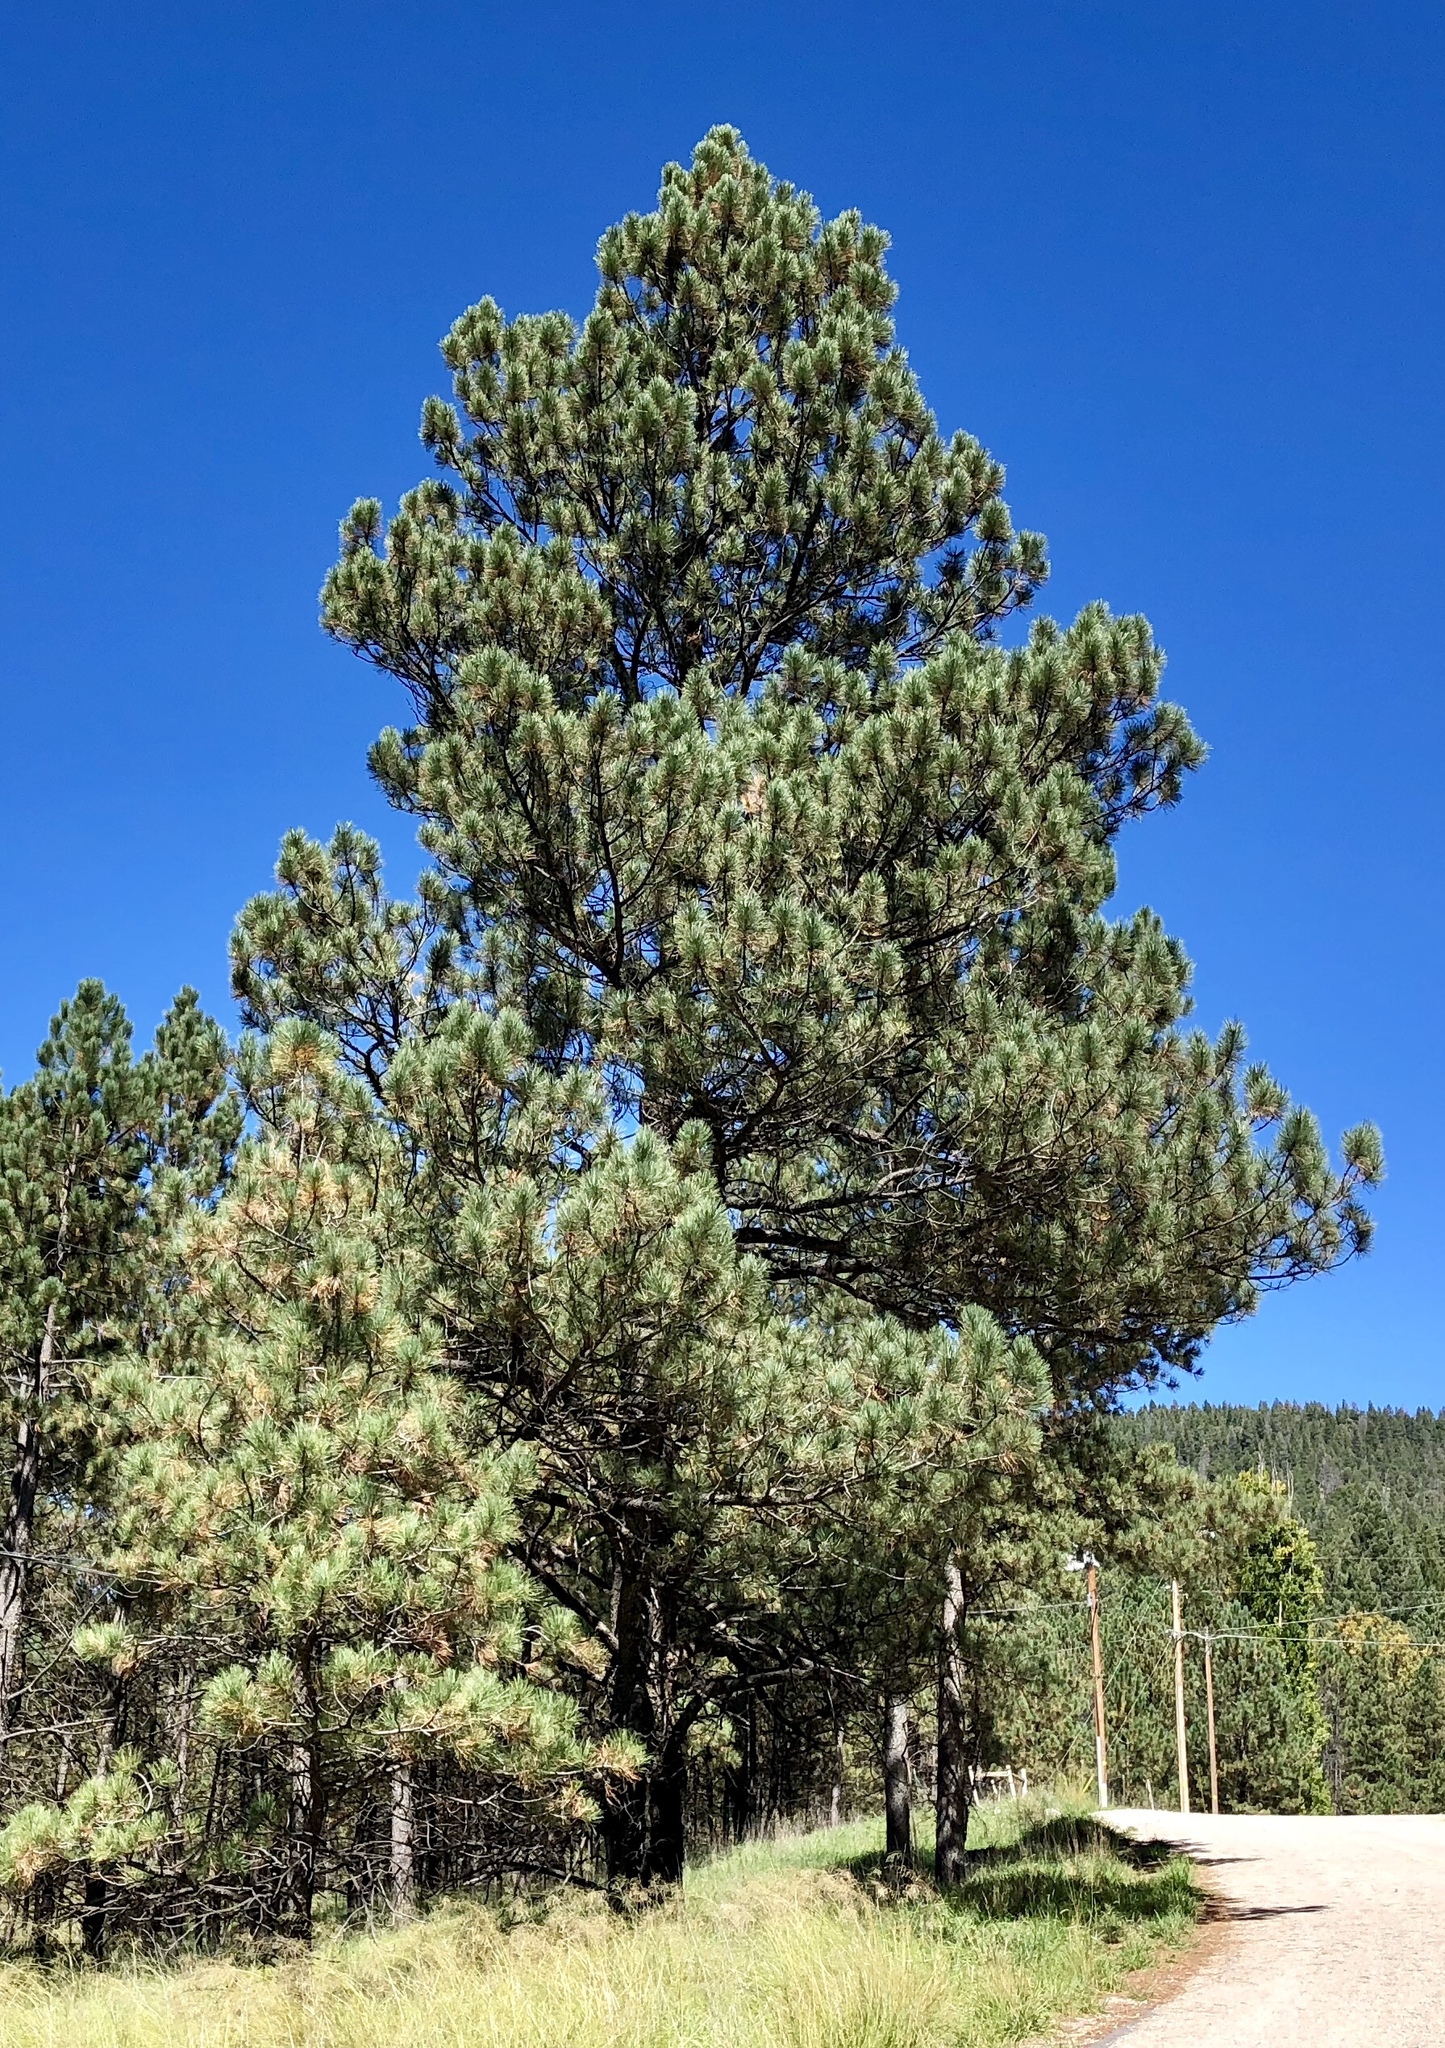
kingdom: Plantae
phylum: Tracheophyta
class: Pinopsida
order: Pinales
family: Pinaceae
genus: Pinus
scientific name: Pinus ponderosa
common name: Western yellow-pine
